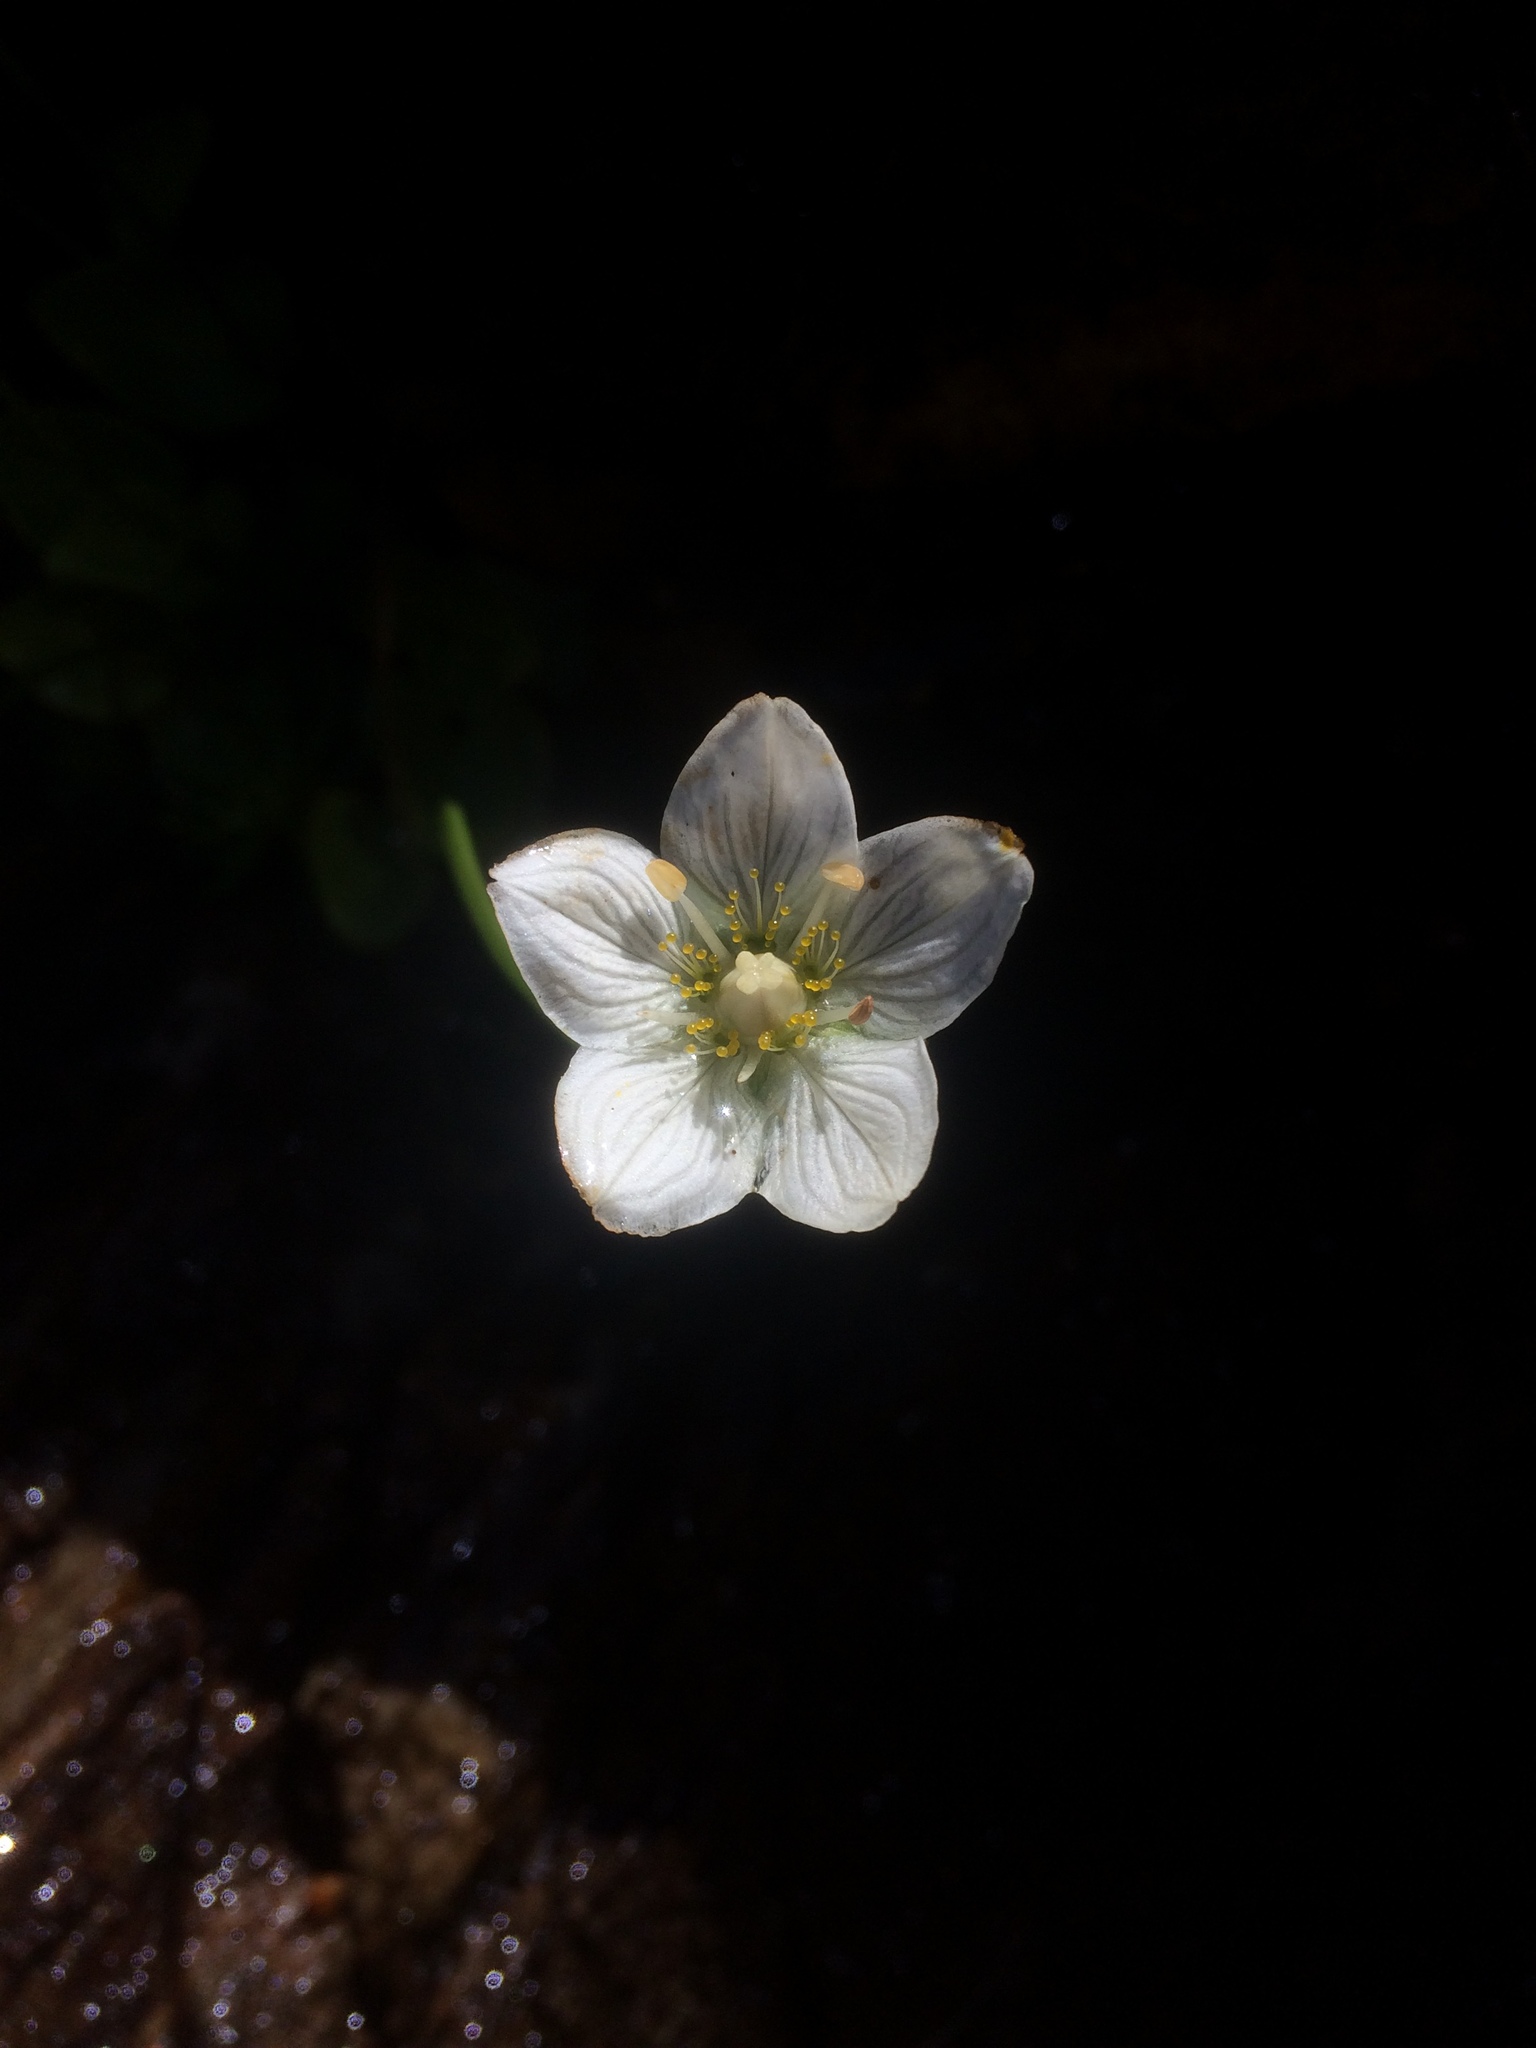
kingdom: Plantae
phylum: Tracheophyta
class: Magnoliopsida
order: Celastrales
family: Parnassiaceae
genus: Parnassia
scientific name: Parnassia palustris
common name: Grass-of-parnassus
